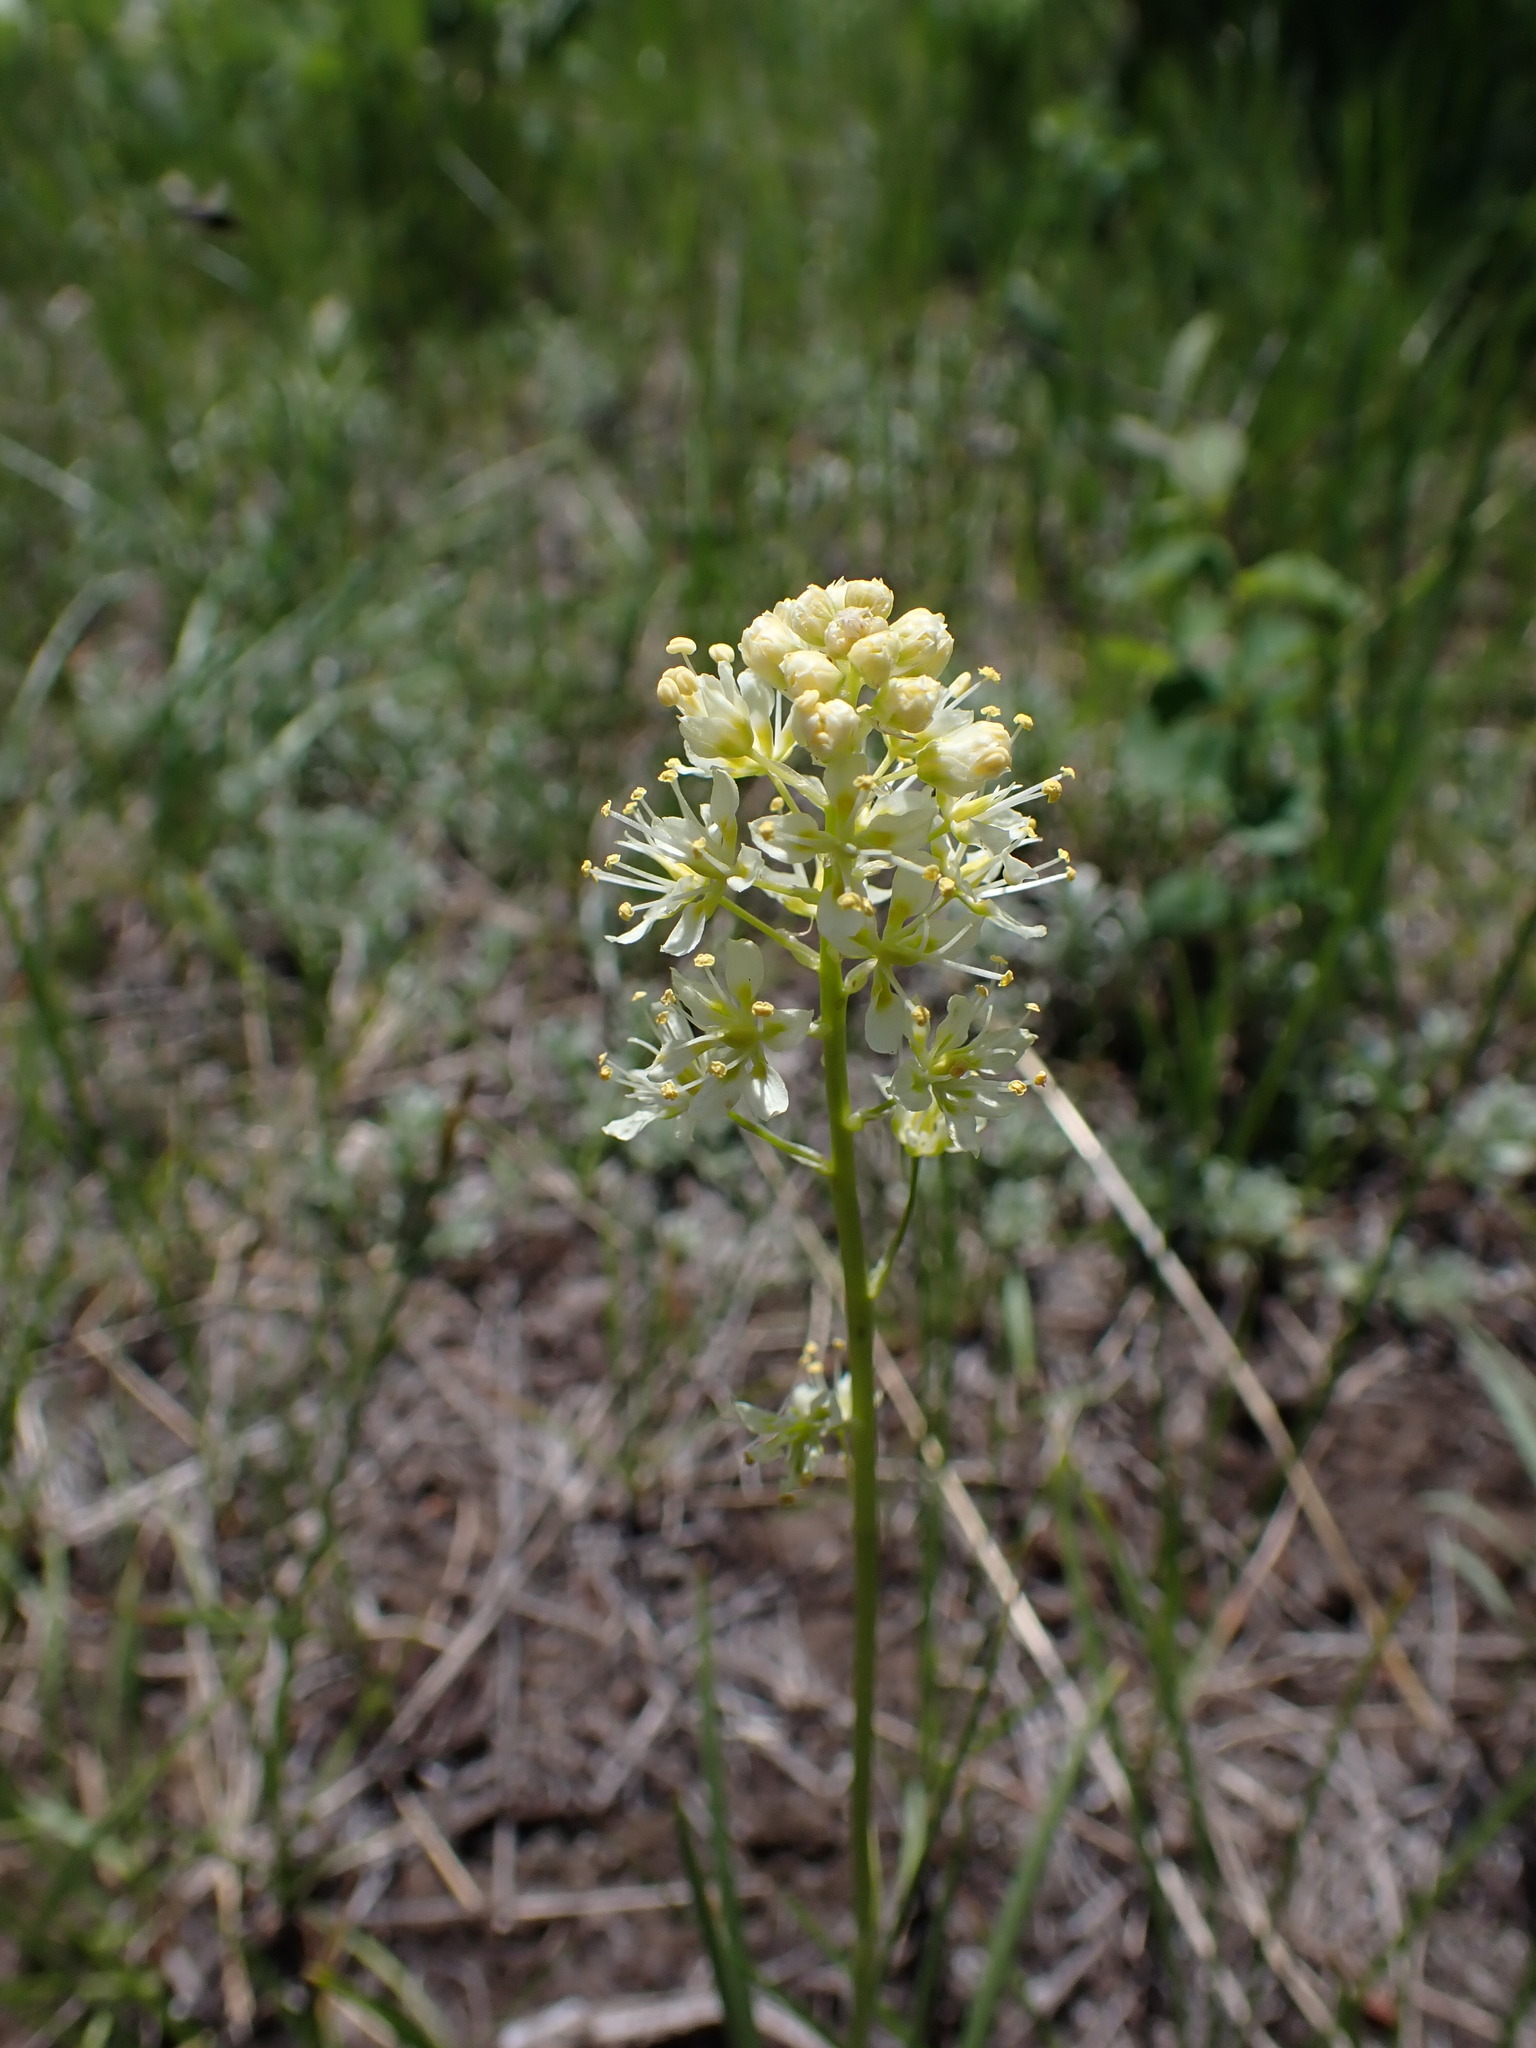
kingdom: Plantae
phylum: Tracheophyta
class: Liliopsida
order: Liliales
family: Melanthiaceae
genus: Toxicoscordion
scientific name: Toxicoscordion venenosum
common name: Meadow death camas
